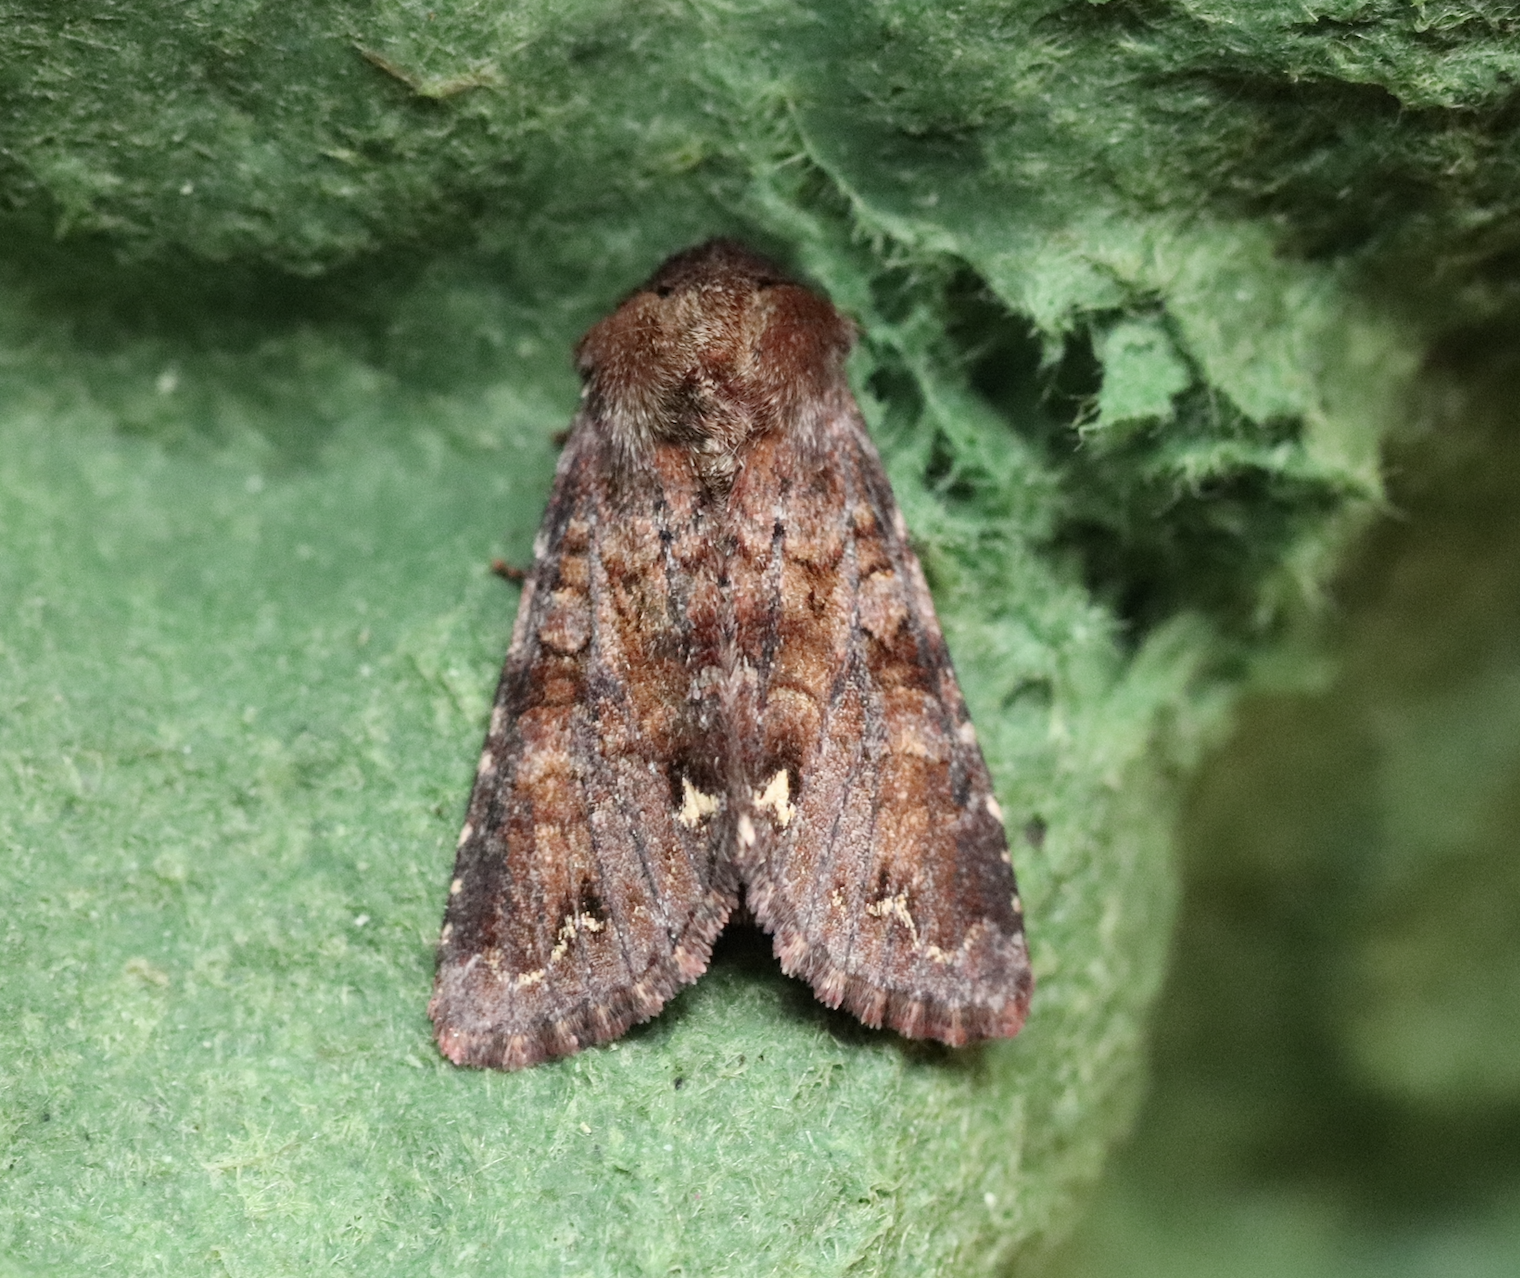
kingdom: Animalia
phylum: Arthropoda
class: Insecta
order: Lepidoptera
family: Noctuidae
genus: Ceramica
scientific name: Ceramica pisi
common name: Broom moth
